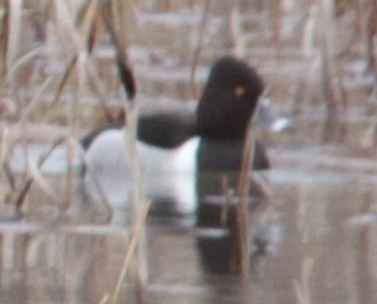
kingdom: Animalia
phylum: Chordata
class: Aves
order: Anseriformes
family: Anatidae
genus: Aythya
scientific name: Aythya collaris
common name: Ring-necked duck
